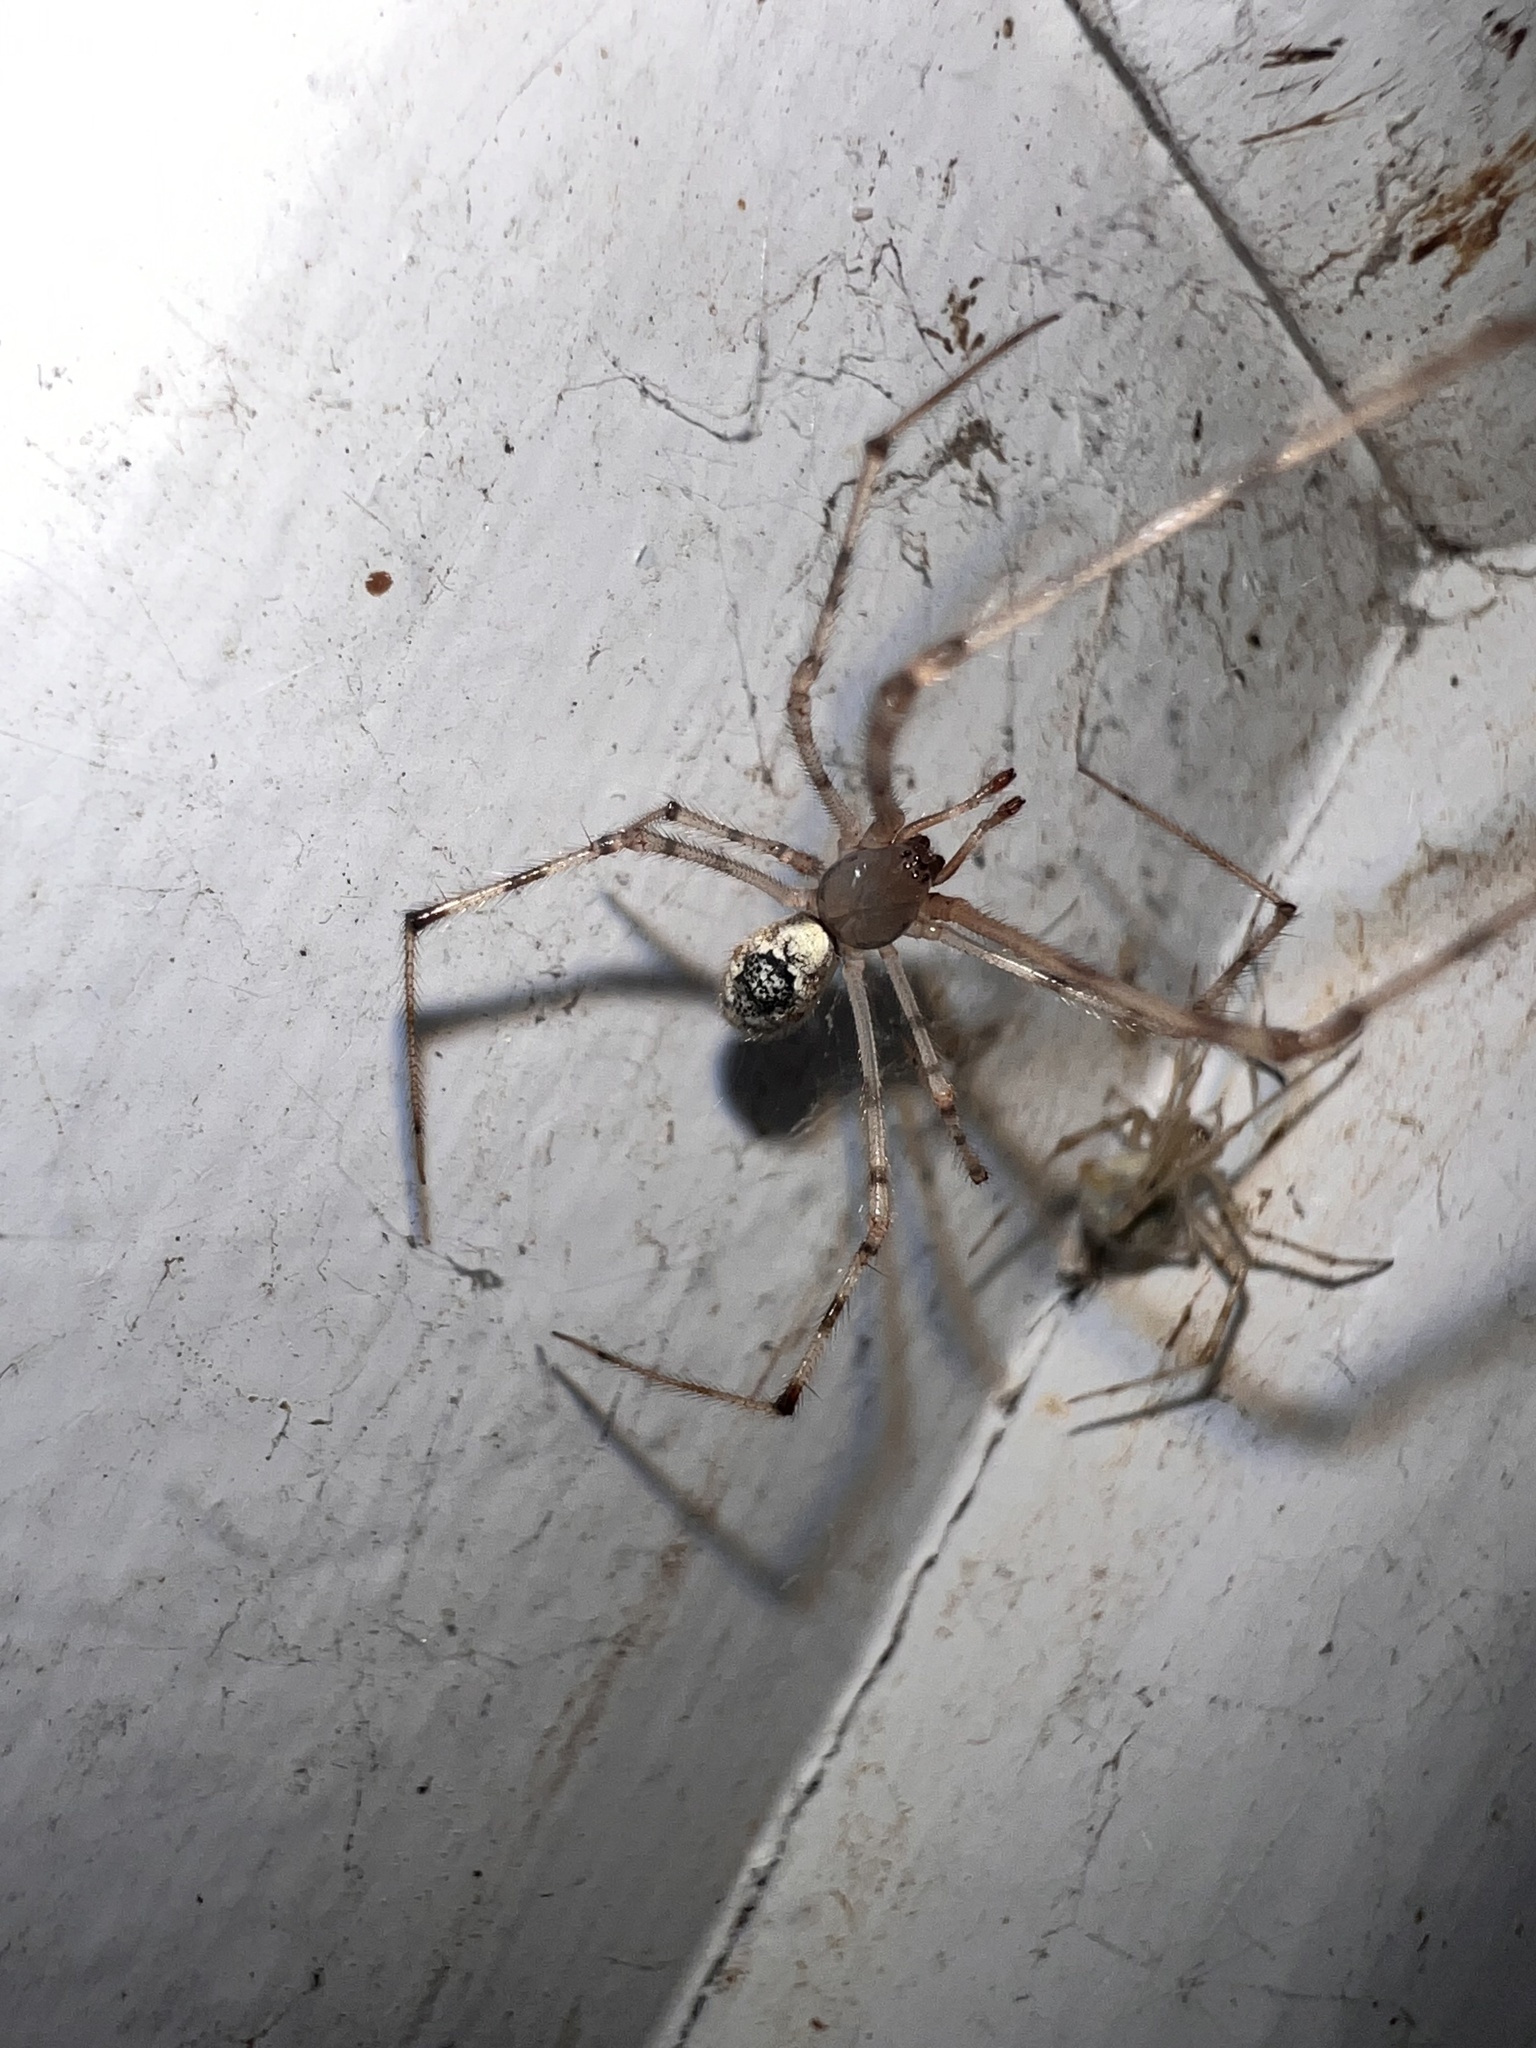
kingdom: Animalia
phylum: Arthropoda
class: Arachnida
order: Araneae
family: Theridiidae
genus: Cryptachaea
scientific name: Cryptachaea gigantipes
